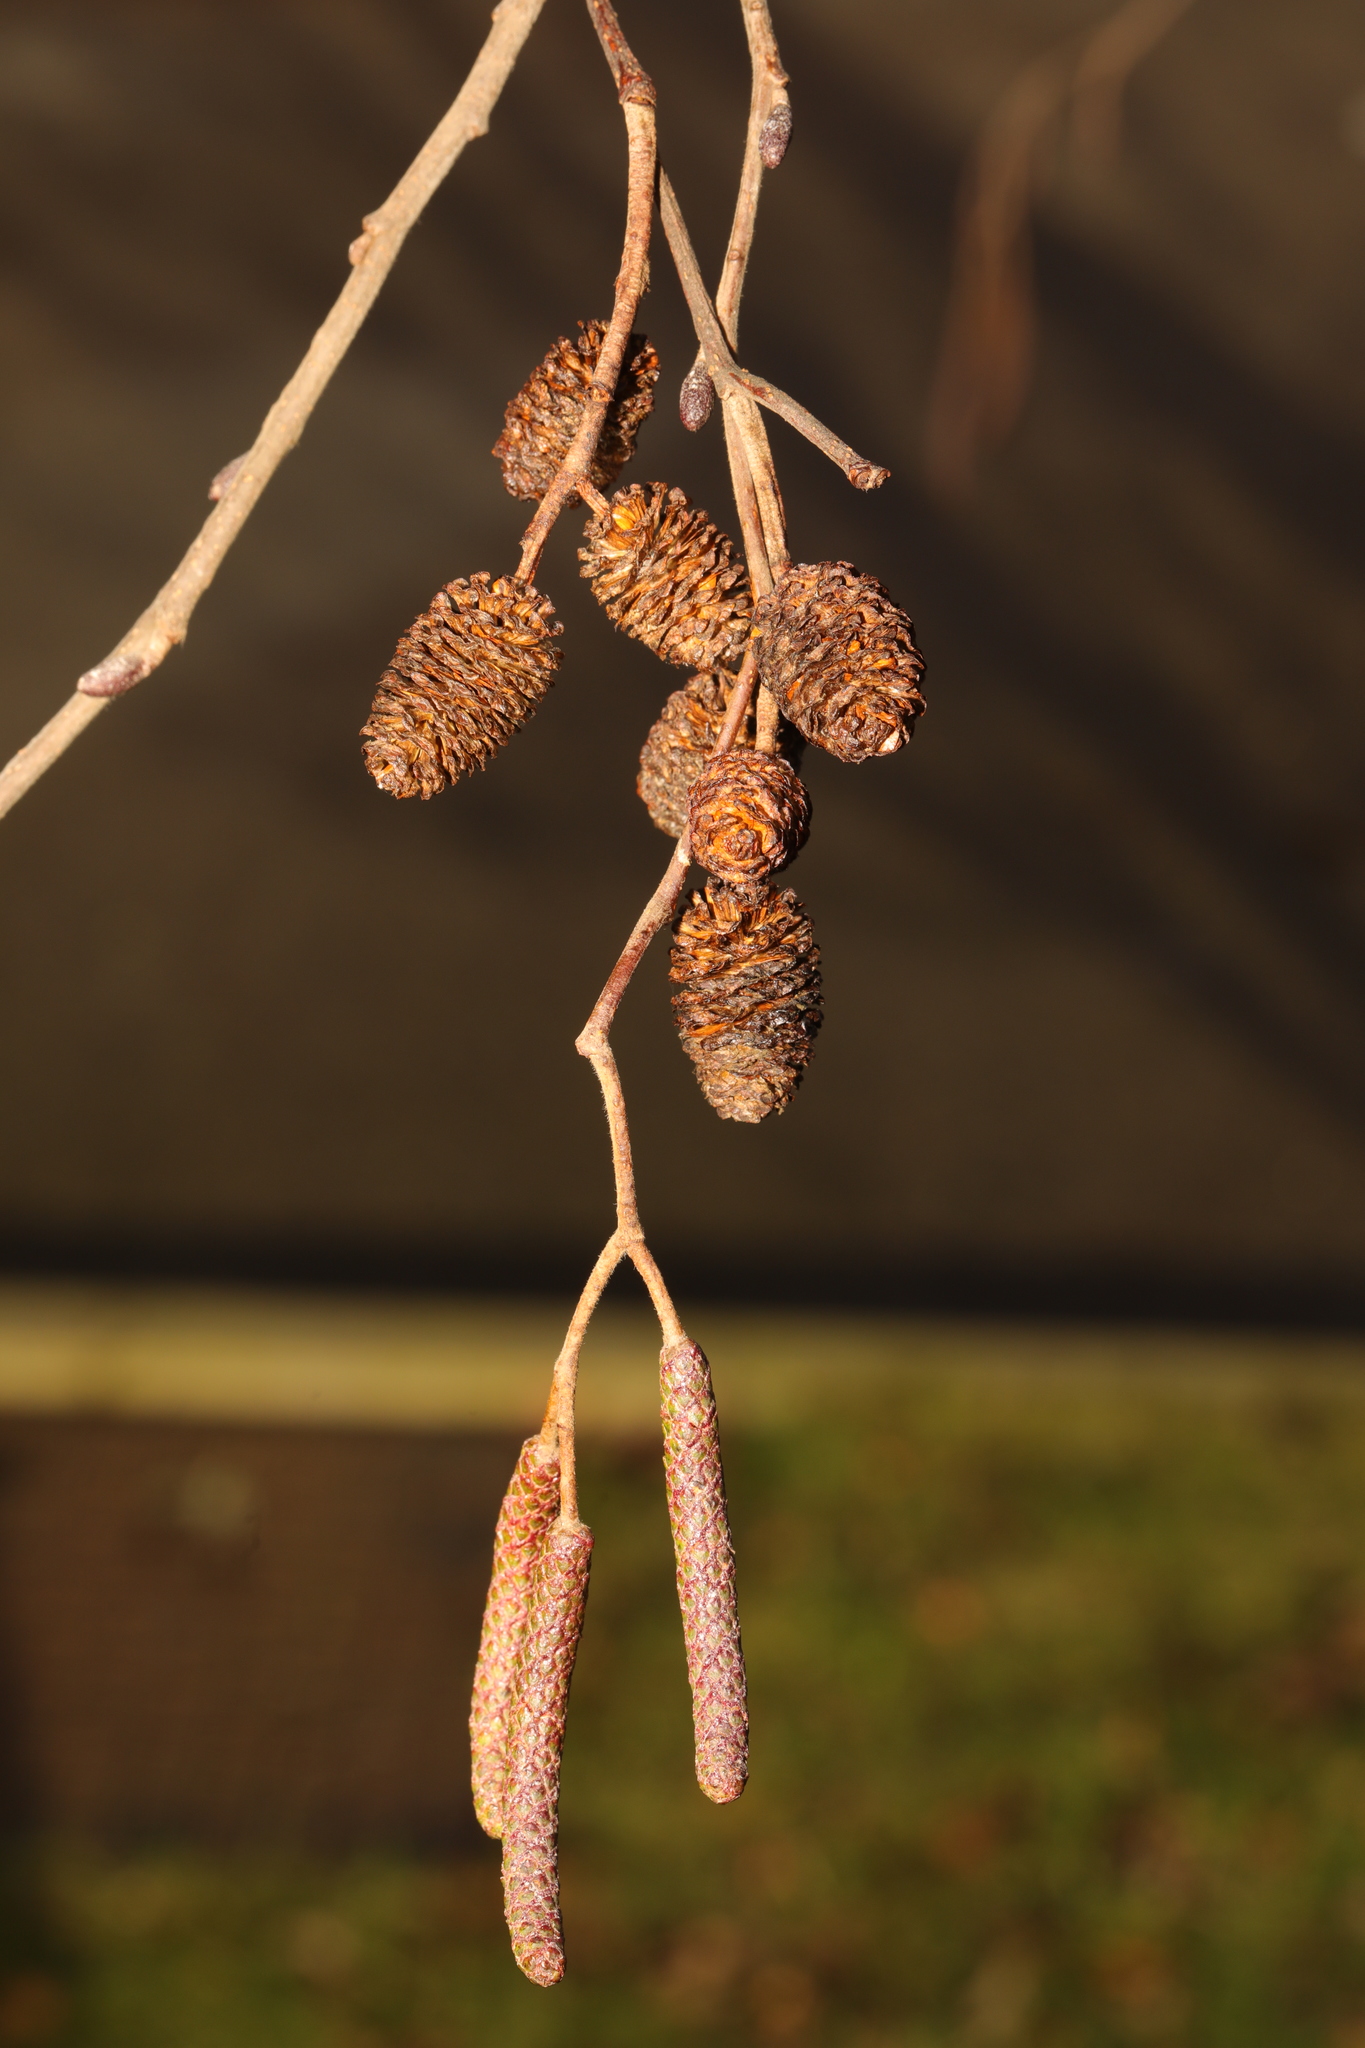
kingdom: Plantae
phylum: Tracheophyta
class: Magnoliopsida
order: Fagales
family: Betulaceae
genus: Alnus
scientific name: Alnus glutinosa
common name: Black alder
